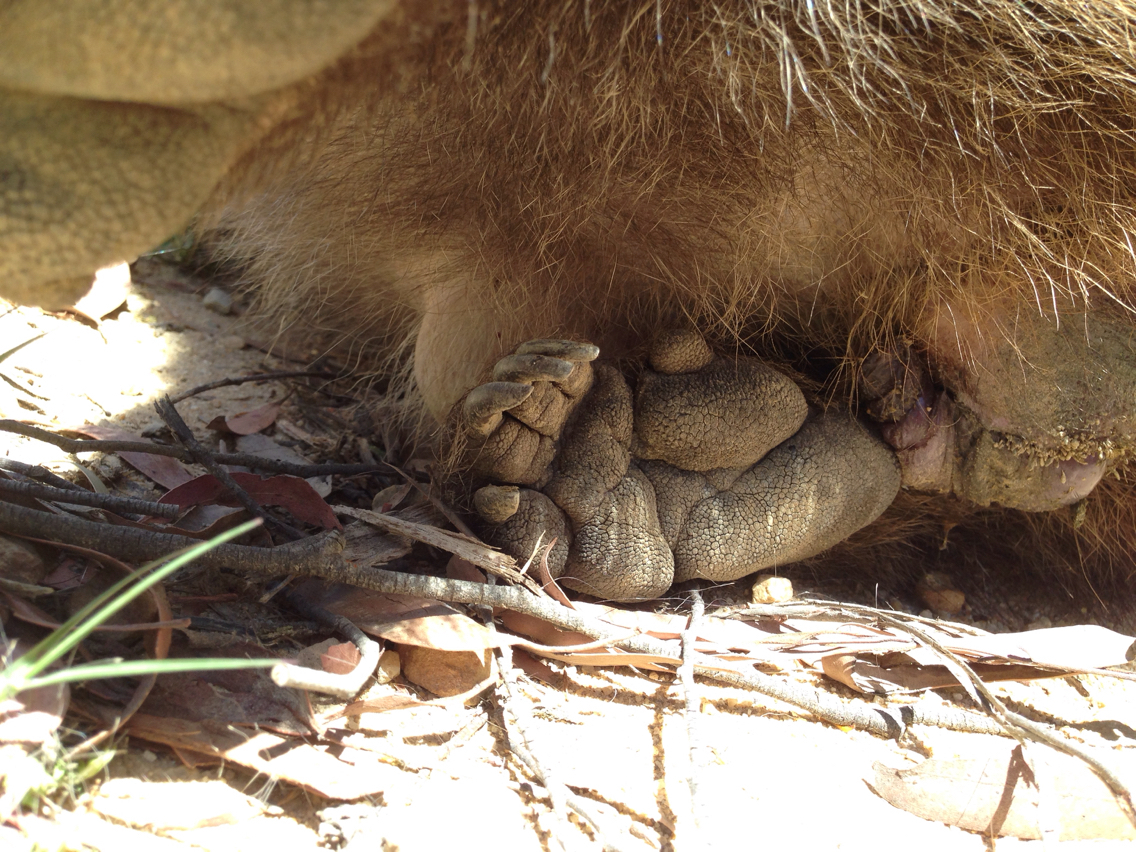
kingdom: Animalia
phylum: Chordata
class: Mammalia
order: Diprotodontia
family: Vombatidae
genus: Vombatus
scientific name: Vombatus ursinus
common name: Common wombat
